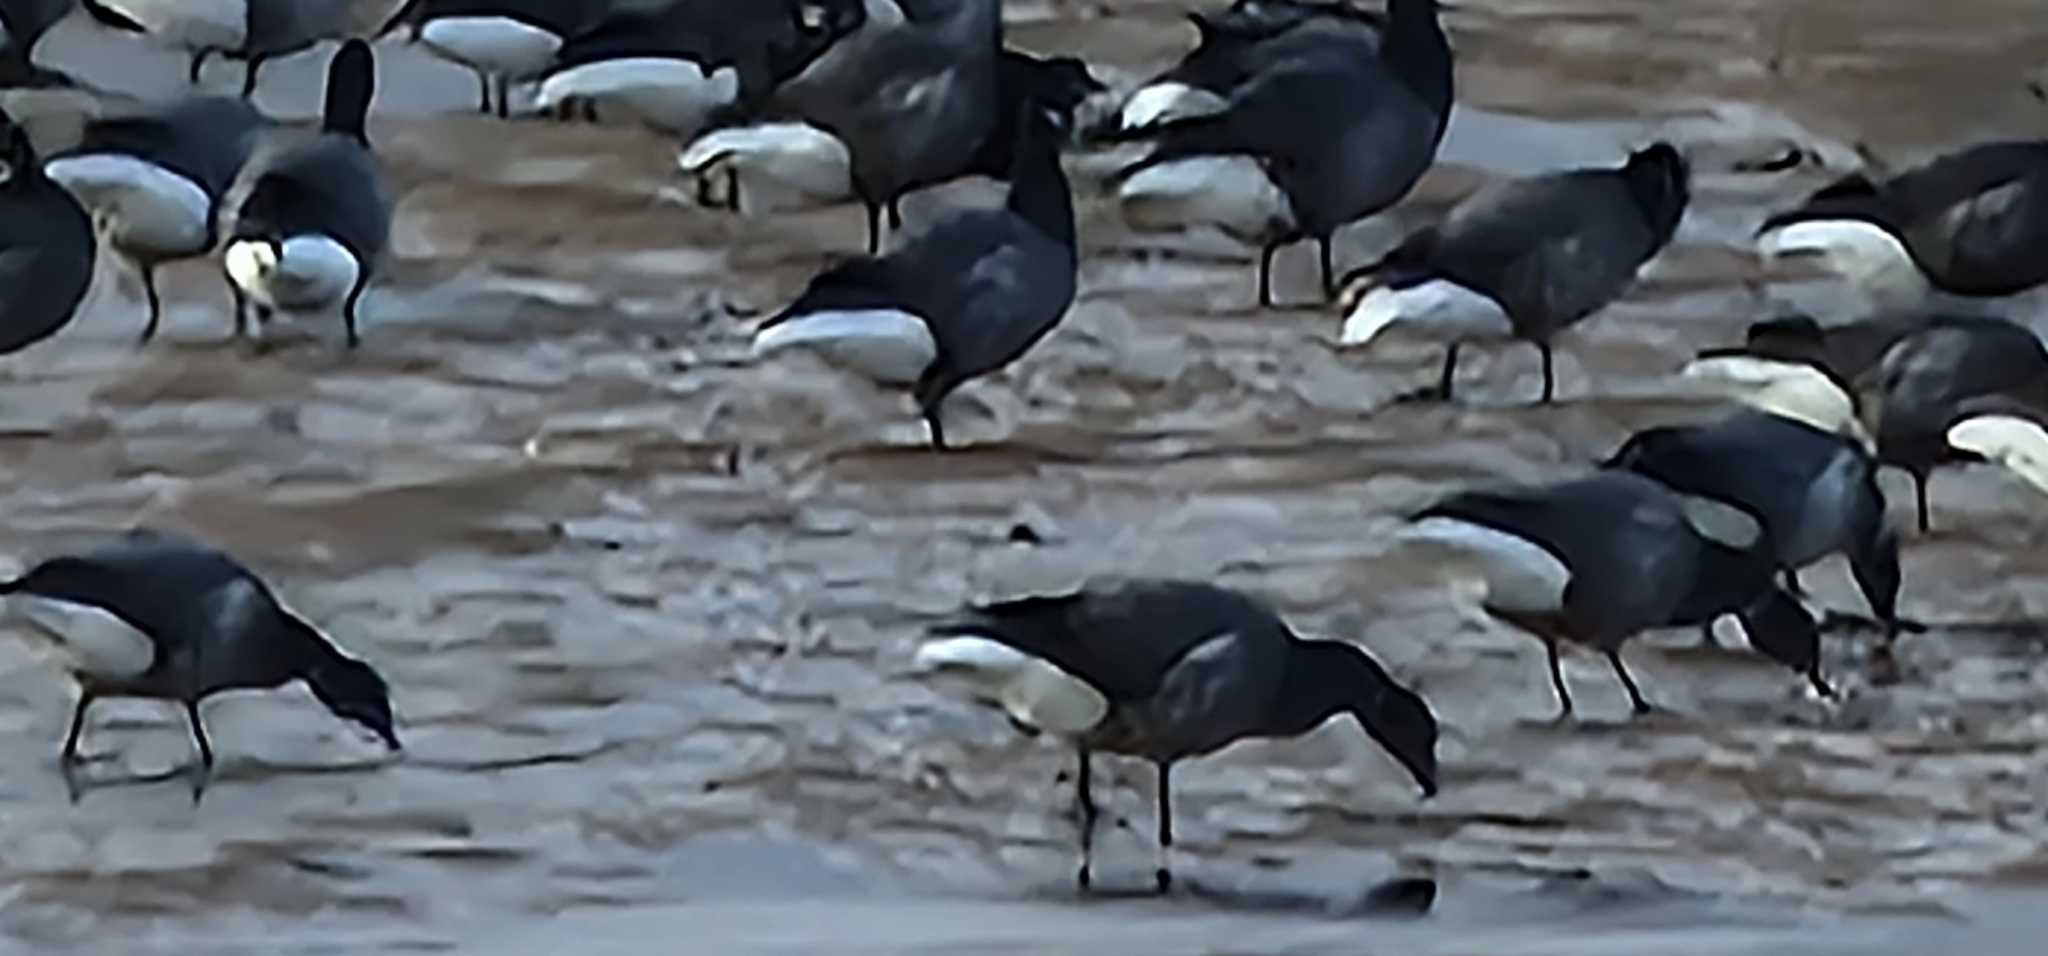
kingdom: Animalia
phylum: Chordata
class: Aves
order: Anseriformes
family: Anatidae
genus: Branta
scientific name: Branta bernicla
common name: Brant goose
